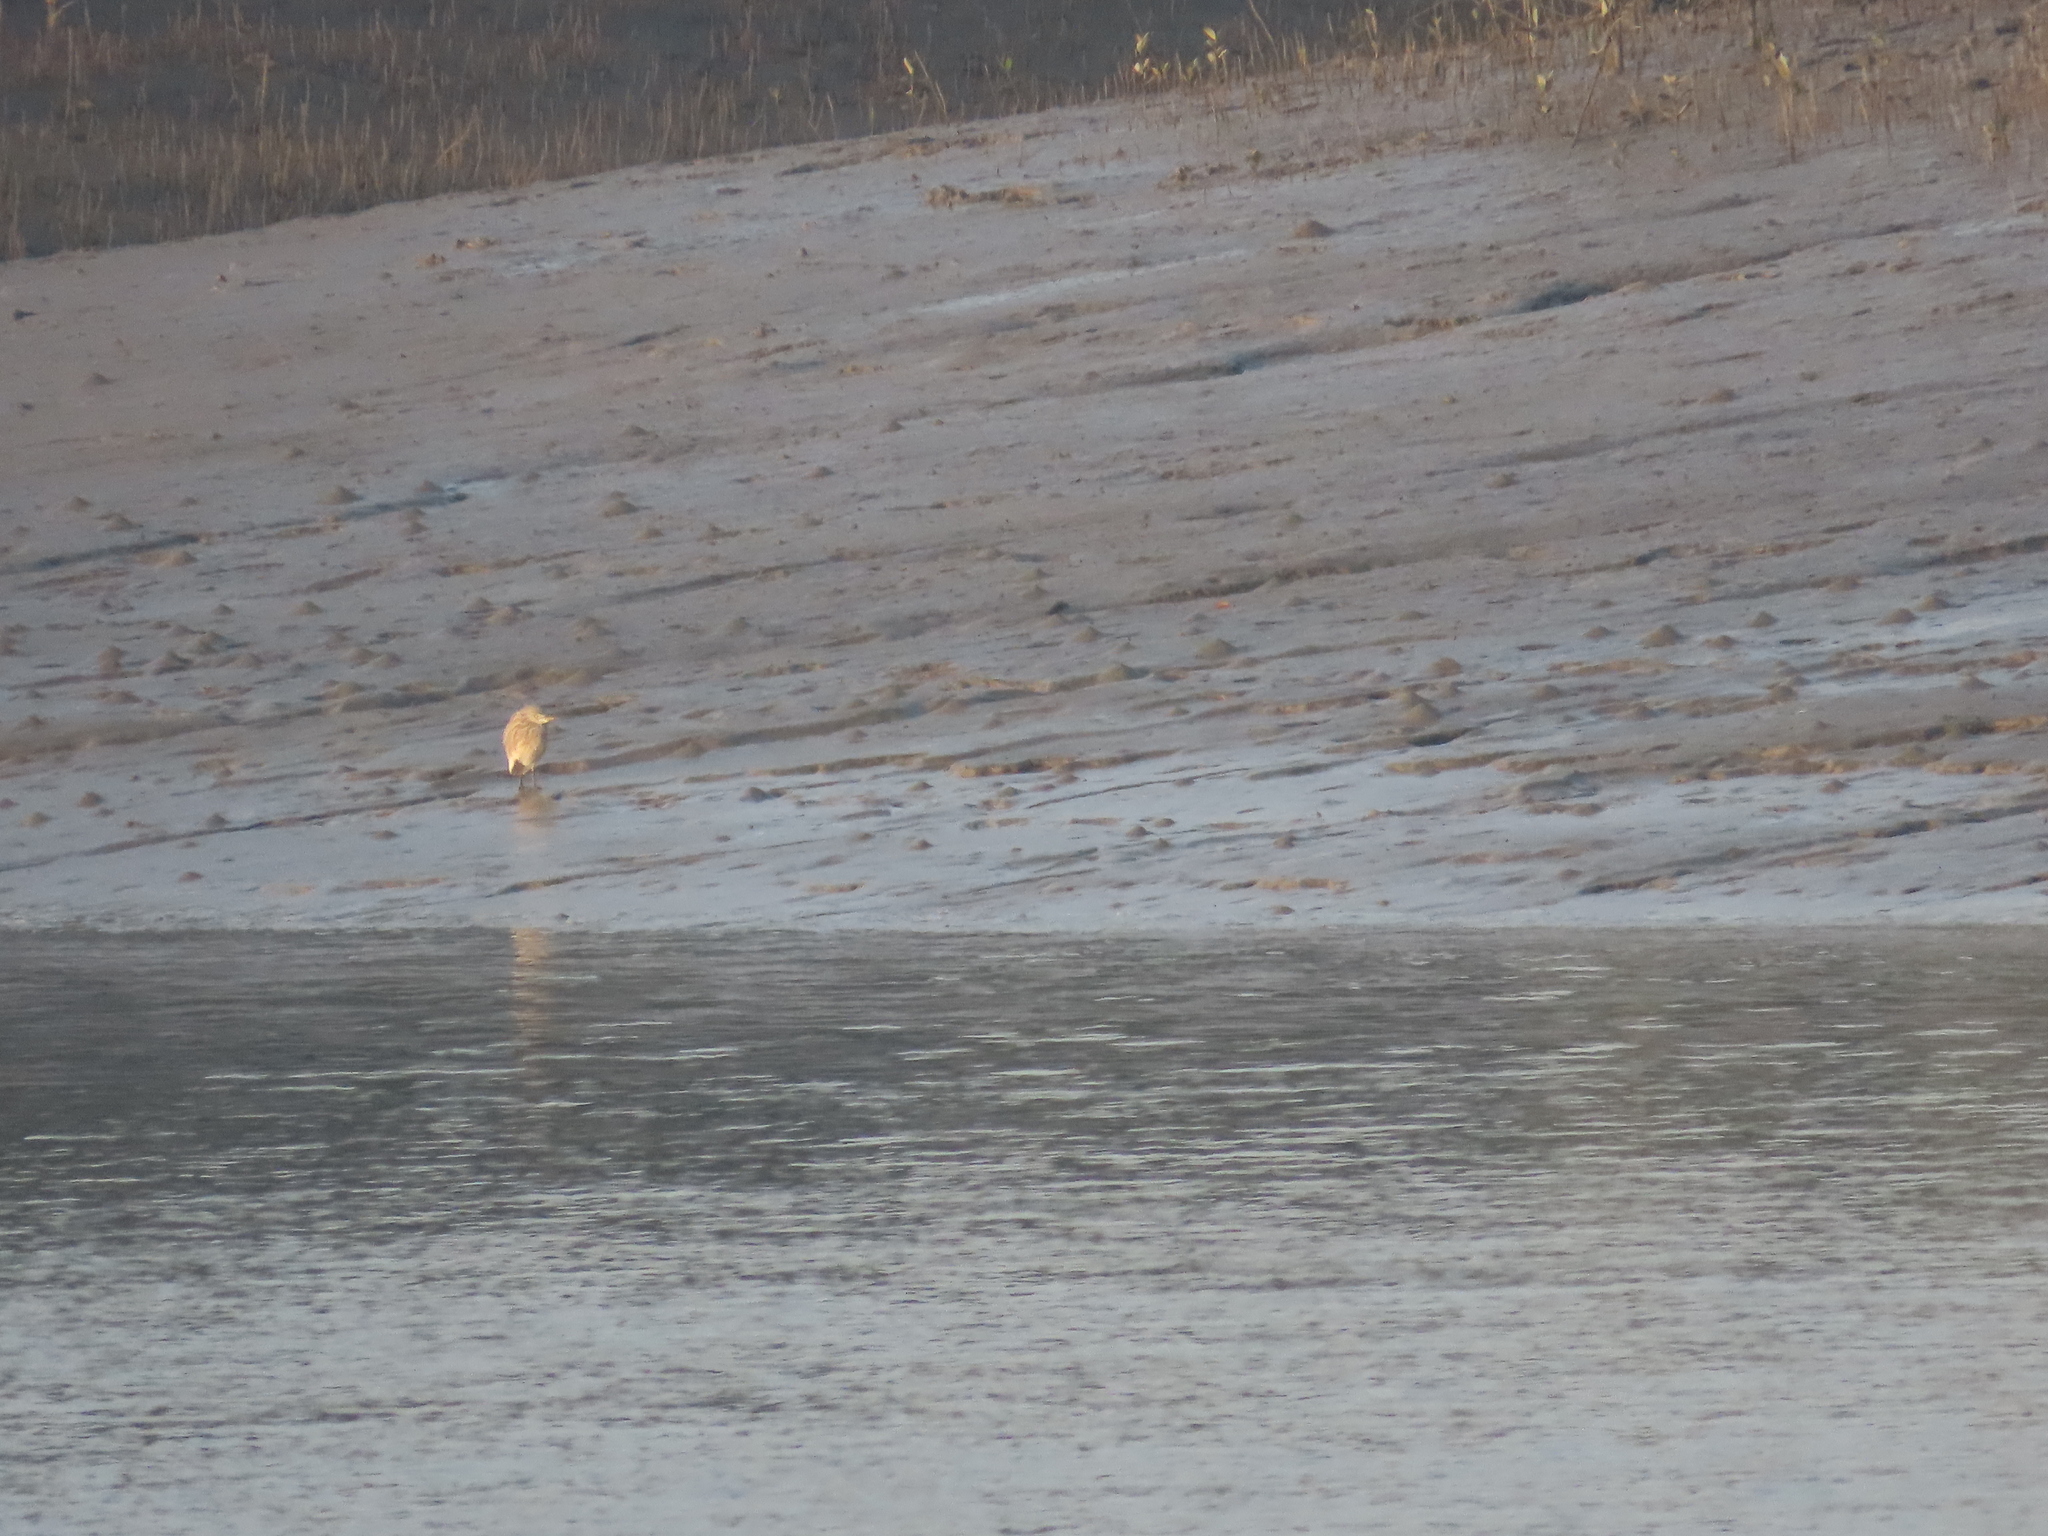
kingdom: Animalia
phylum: Chordata
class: Aves
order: Pelecaniformes
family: Ardeidae
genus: Ardeola
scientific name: Ardeola grayii
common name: Indian pond heron
